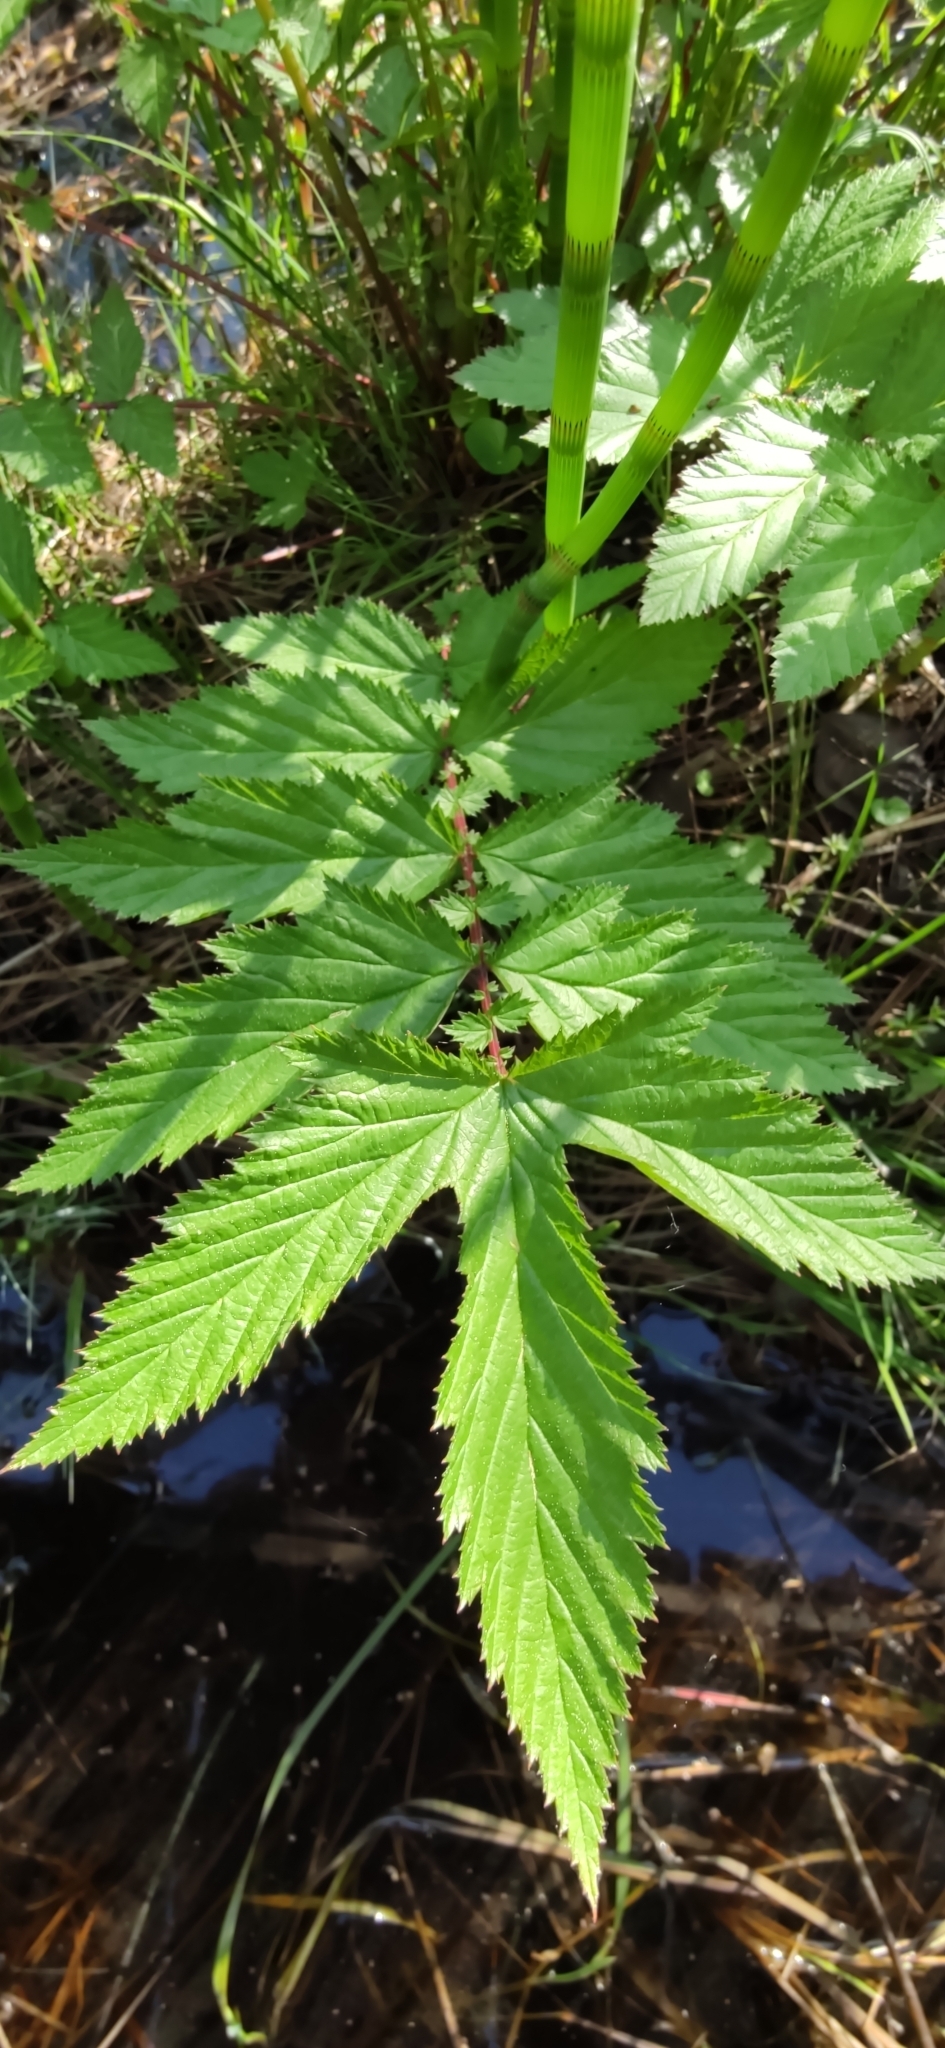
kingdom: Plantae
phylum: Tracheophyta
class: Magnoliopsida
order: Rosales
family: Rosaceae
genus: Filipendula
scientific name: Filipendula ulmaria
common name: Meadowsweet
